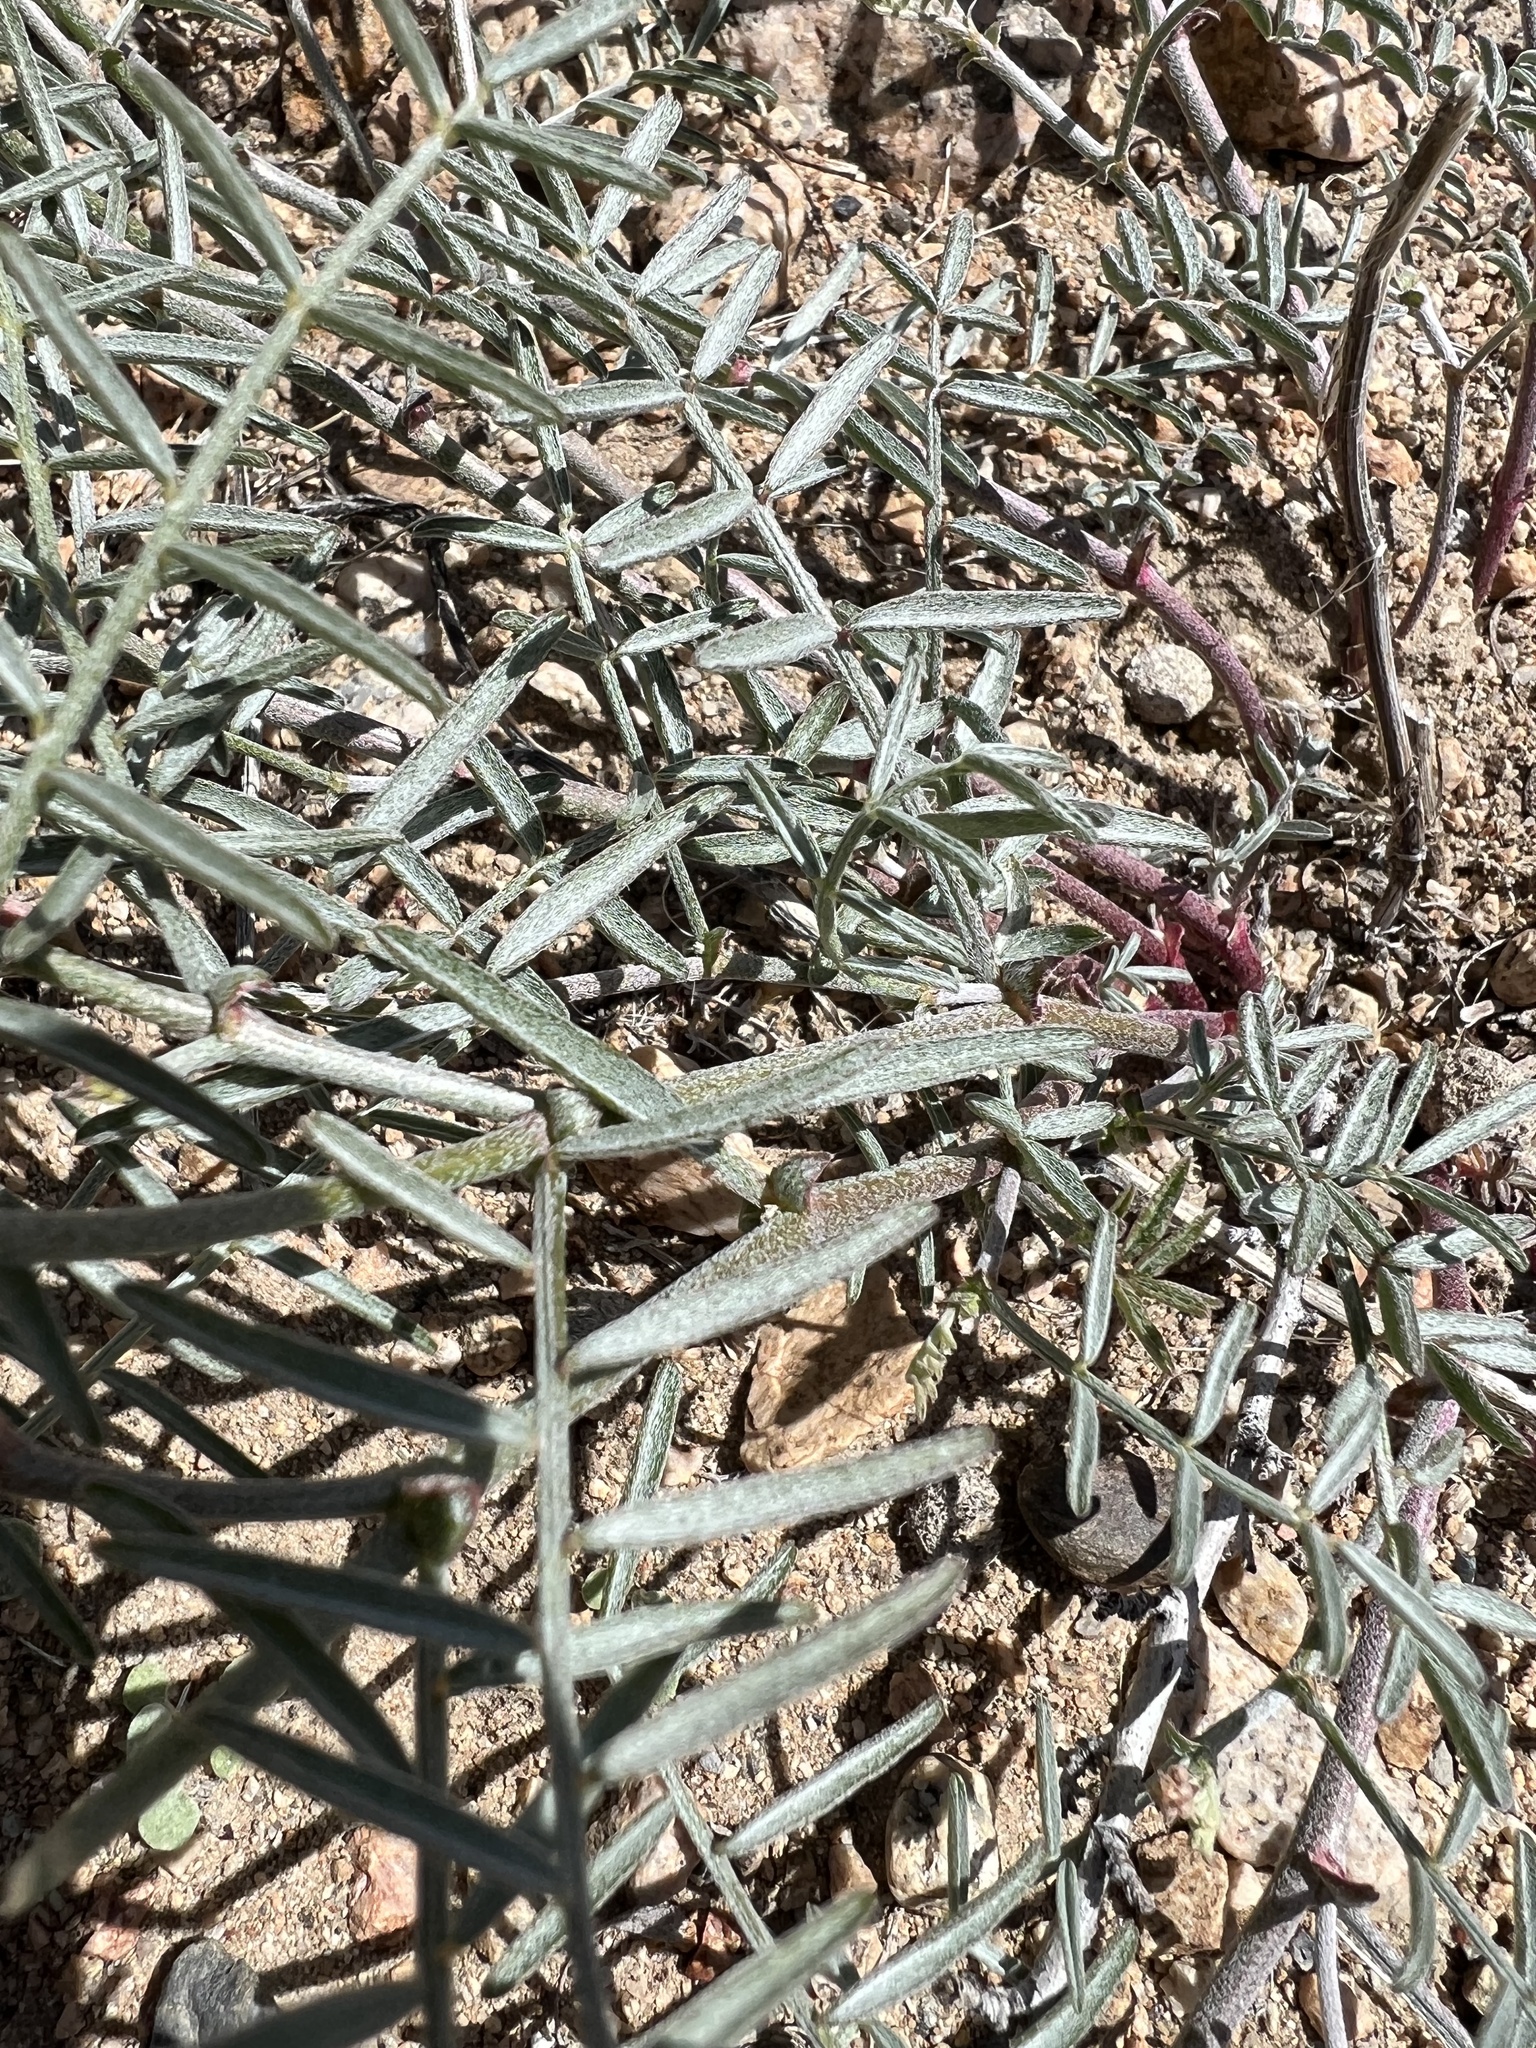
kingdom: Plantae
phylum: Tracheophyta
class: Magnoliopsida
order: Fabales
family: Fabaceae
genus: Astragalus
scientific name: Astragalus casei
